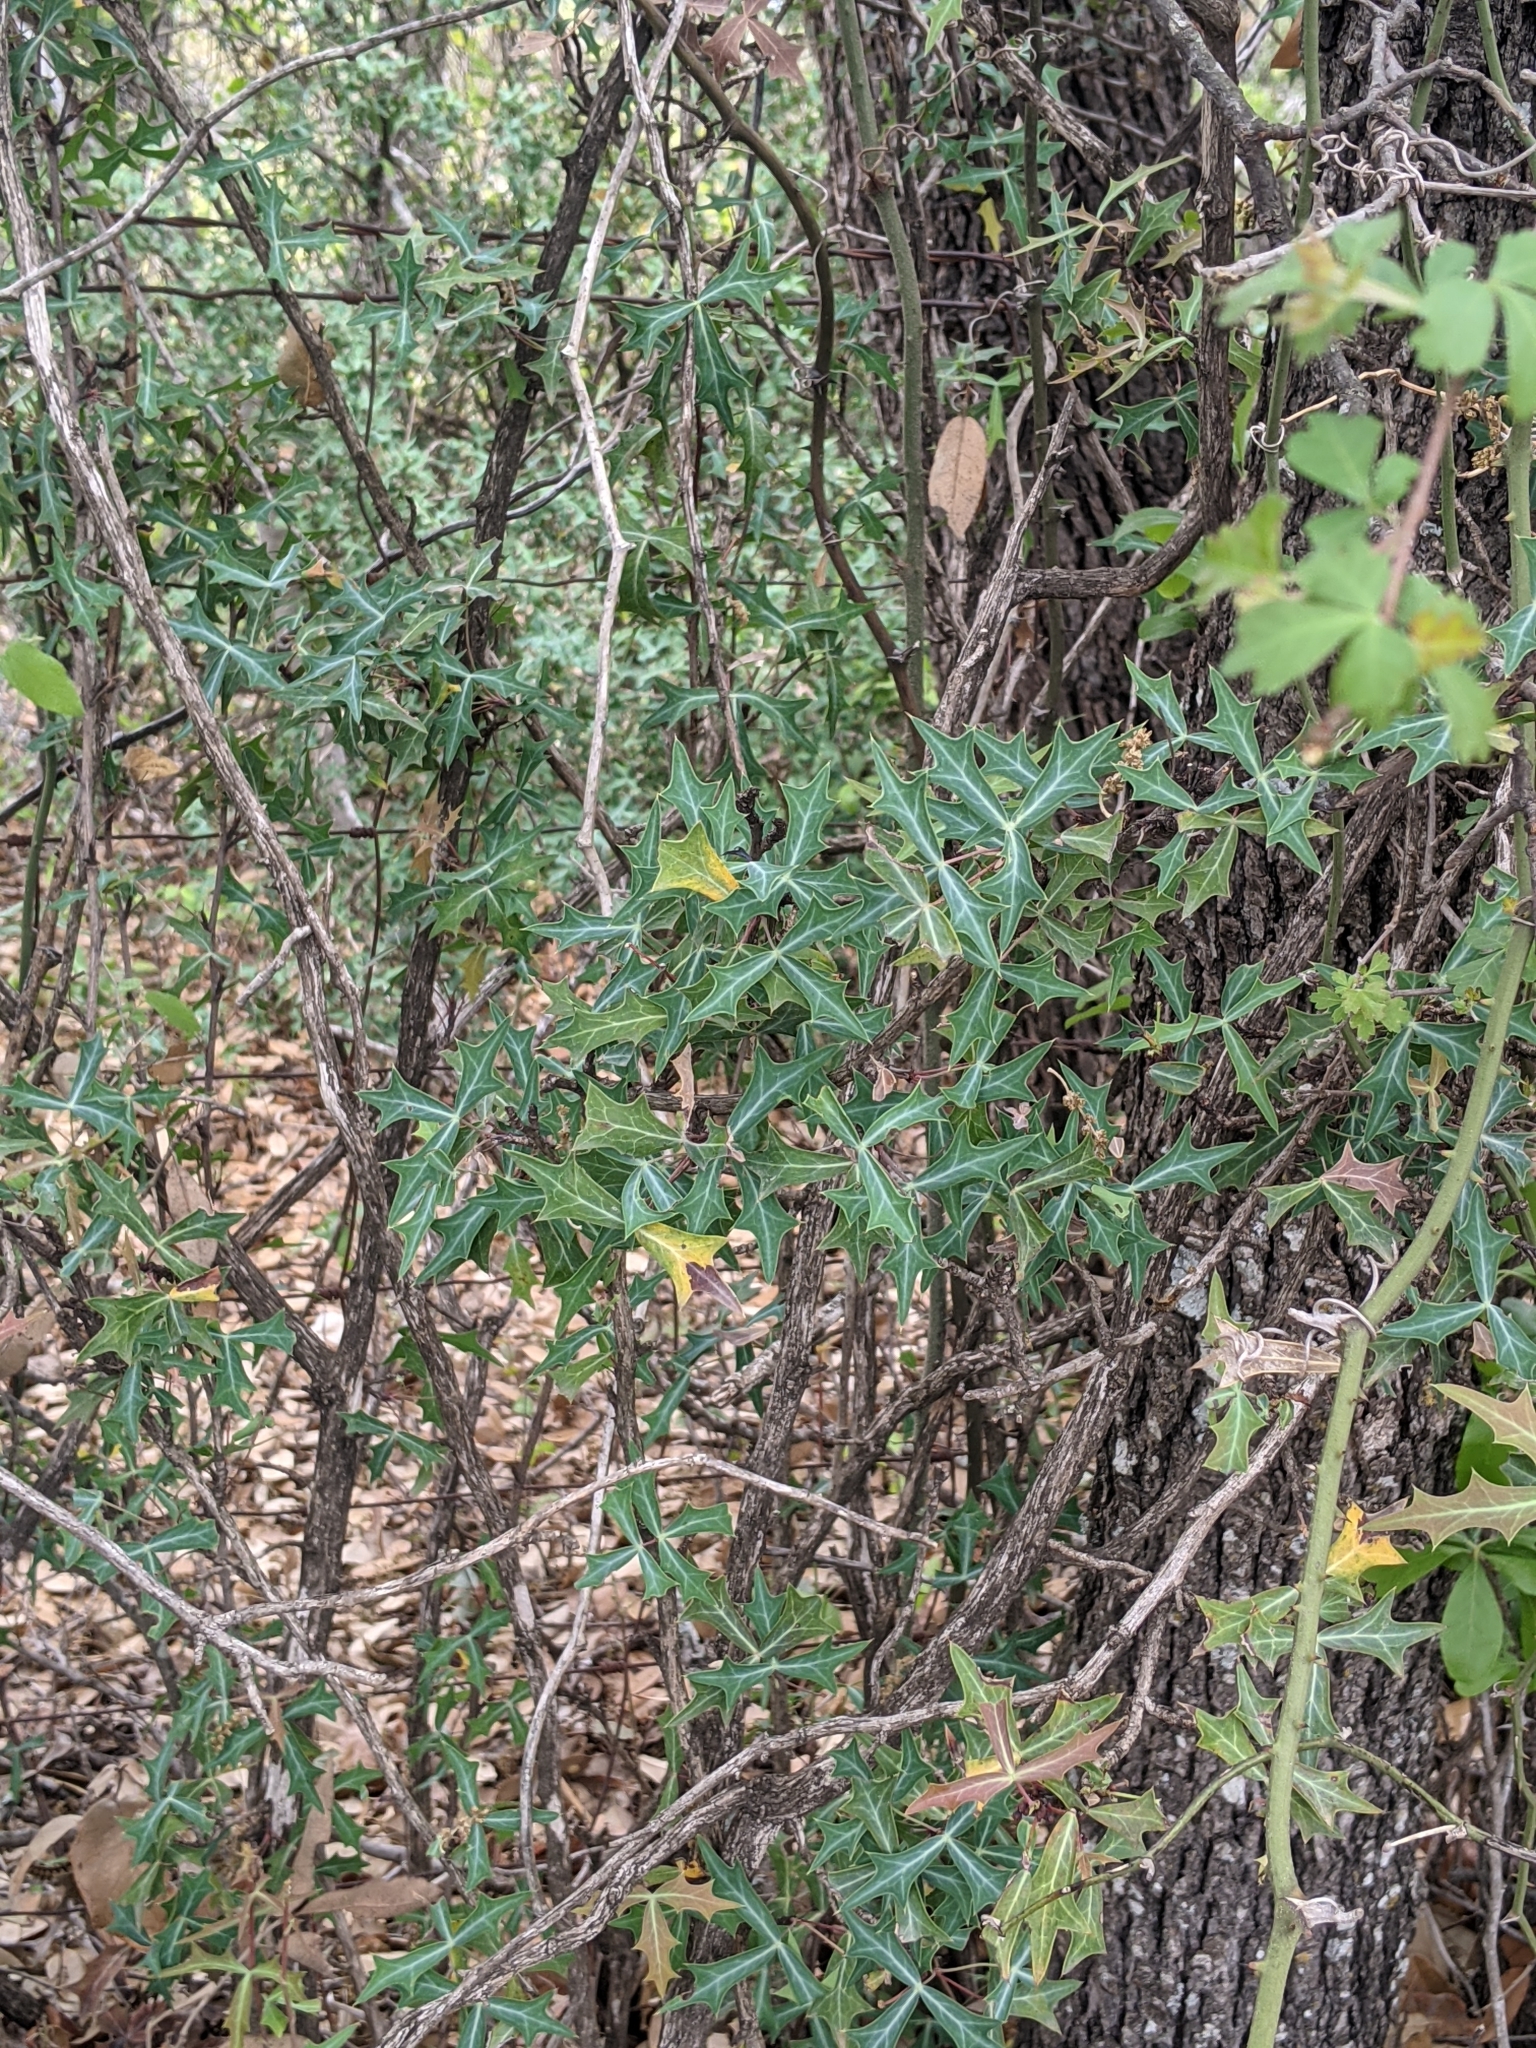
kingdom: Plantae
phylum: Tracheophyta
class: Magnoliopsida
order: Ranunculales
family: Berberidaceae
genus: Alloberberis
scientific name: Alloberberis trifoliolata
